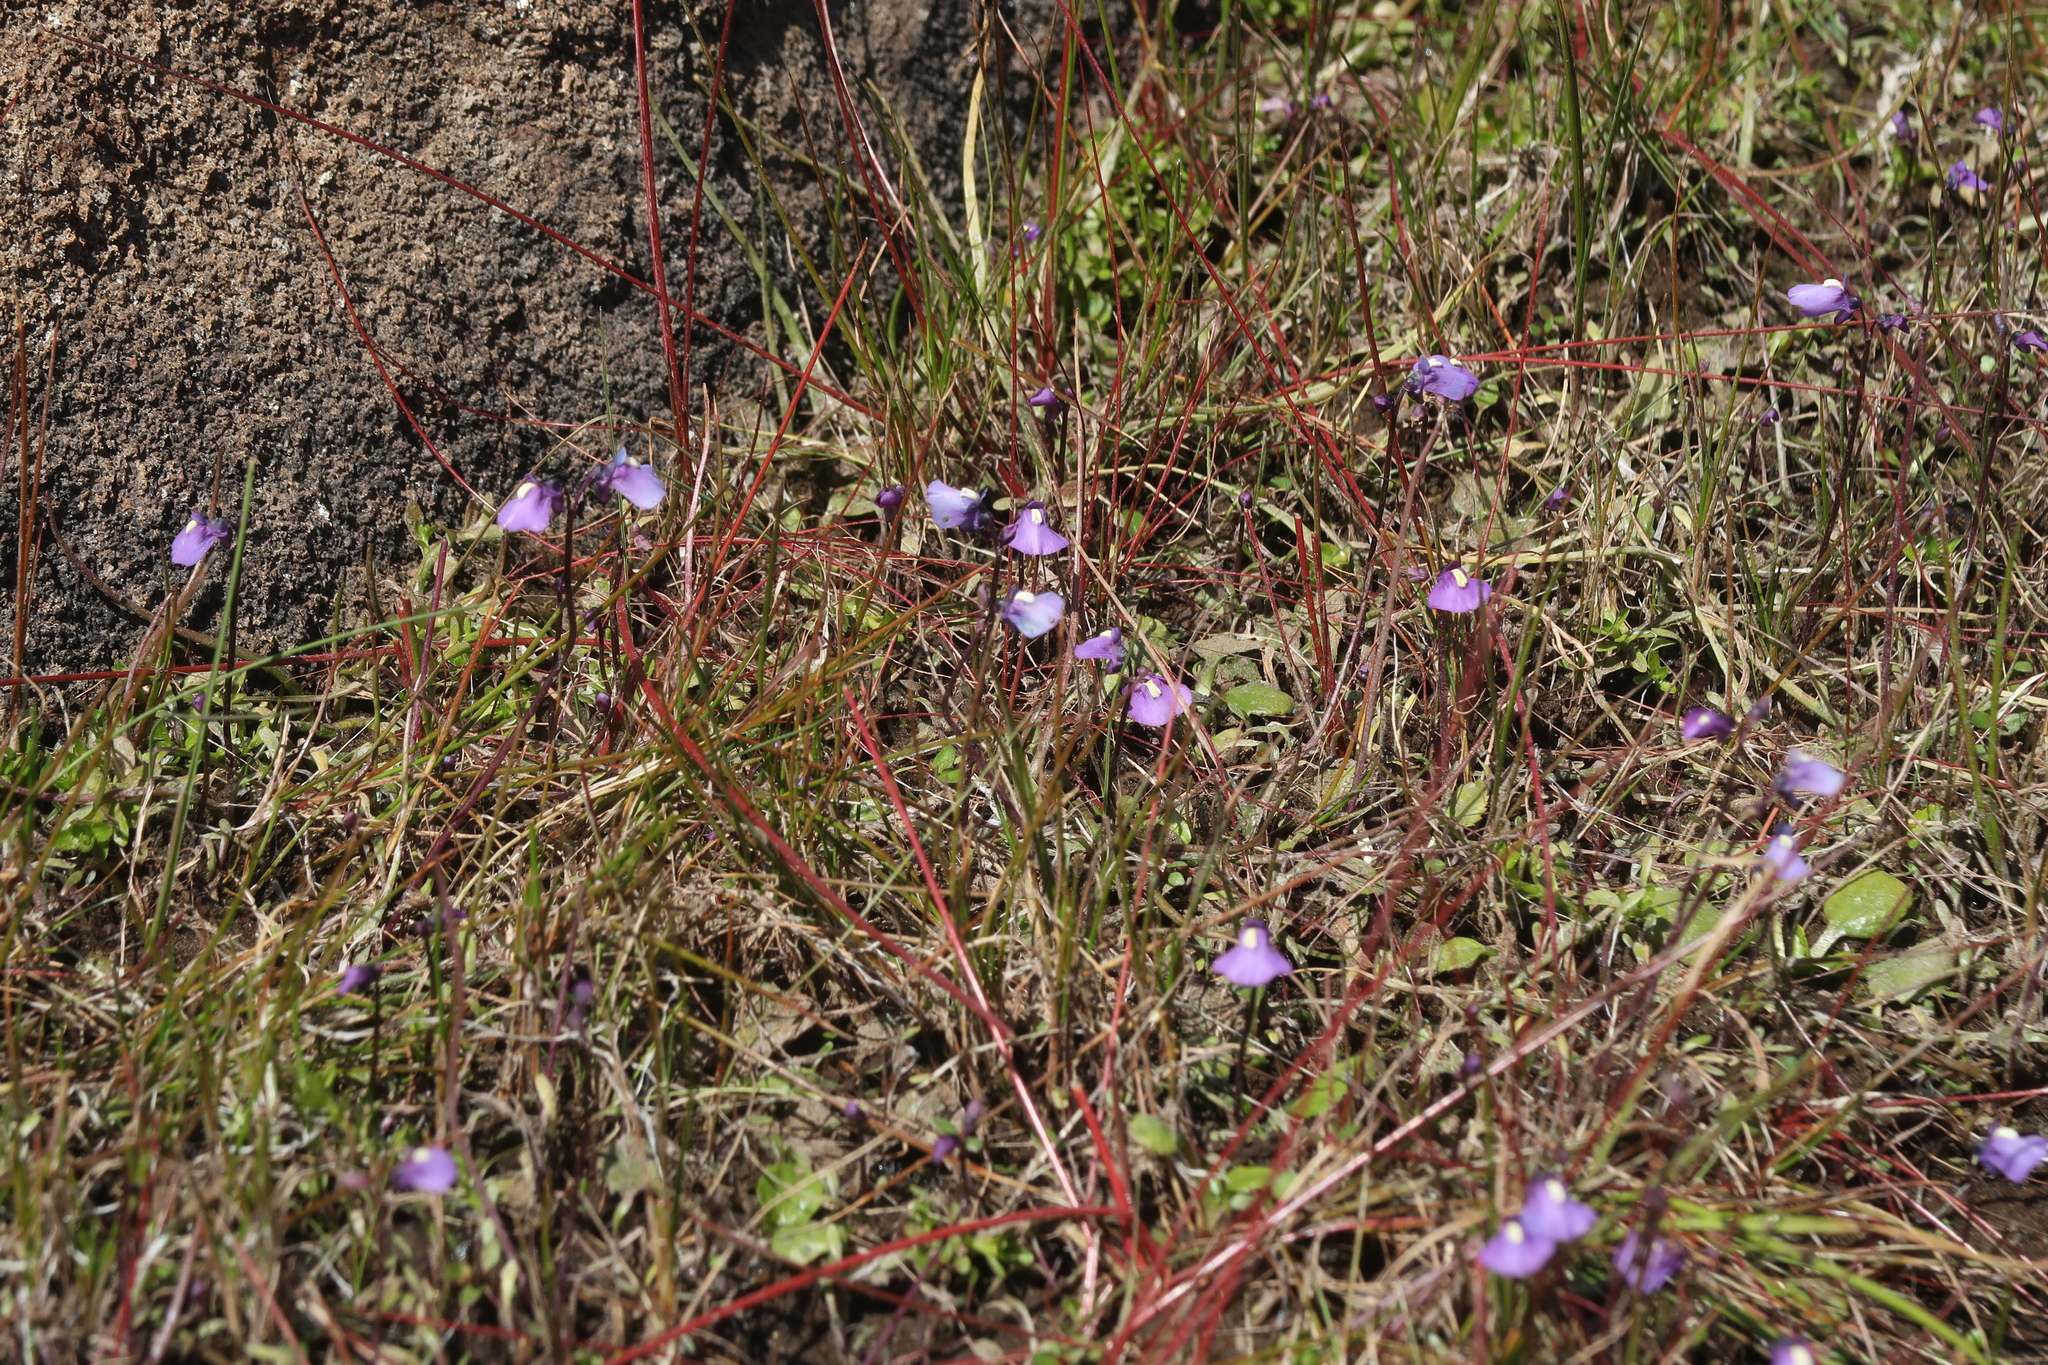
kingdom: Plantae
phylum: Tracheophyta
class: Magnoliopsida
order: Lamiales
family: Lentibulariaceae
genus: Utricularia
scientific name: Utricularia dichotoma
